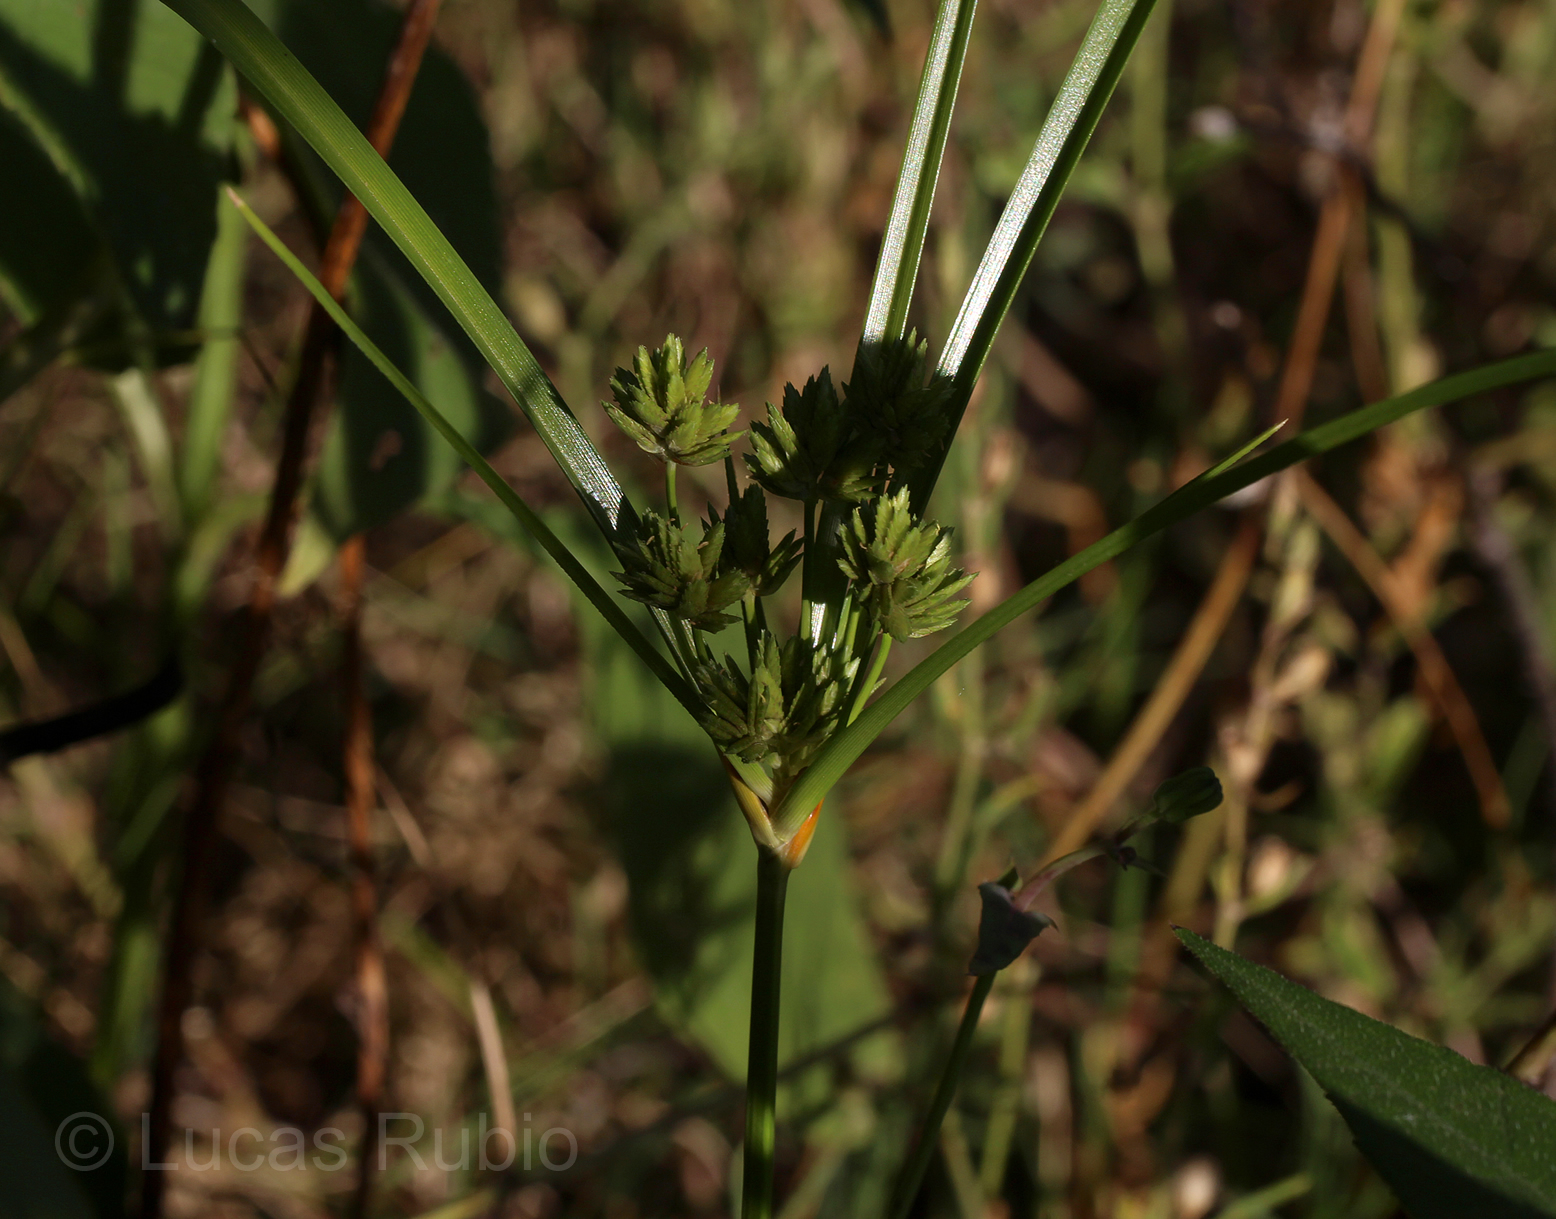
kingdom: Plantae
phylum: Tracheophyta
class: Liliopsida
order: Poales
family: Cyperaceae
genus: Cyperus
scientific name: Cyperus eragrostis
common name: Tall flatsedge
